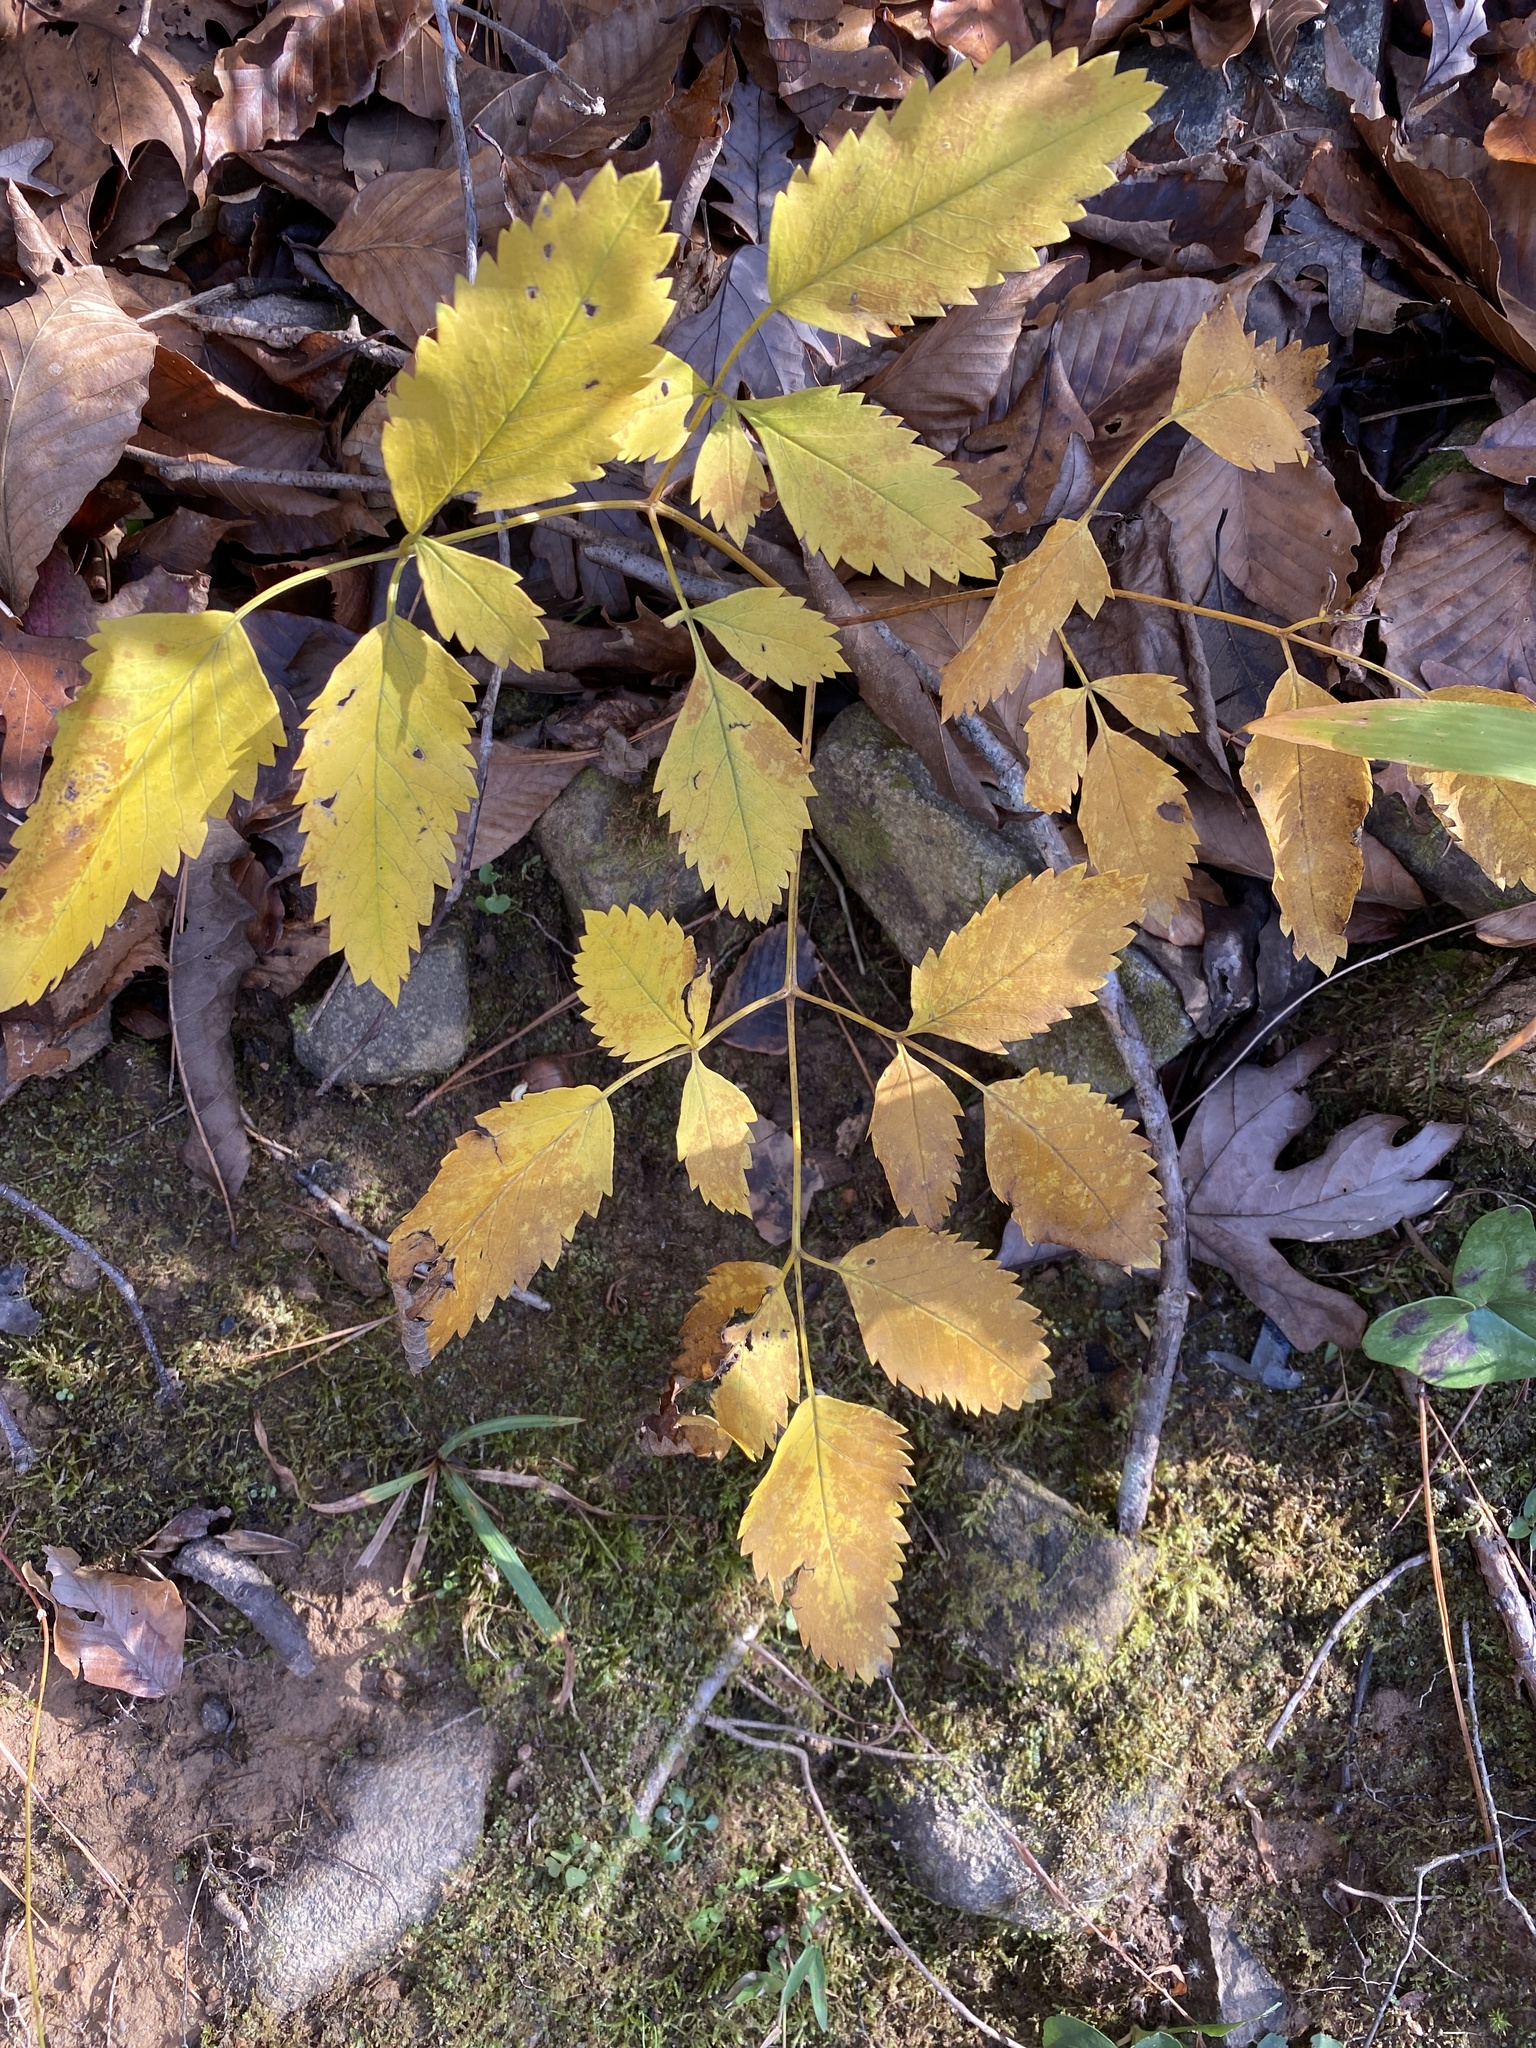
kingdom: Plantae
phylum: Tracheophyta
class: Magnoliopsida
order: Apiales
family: Apiaceae
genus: Ligusticum
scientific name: Ligusticum canadense
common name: American lovage
